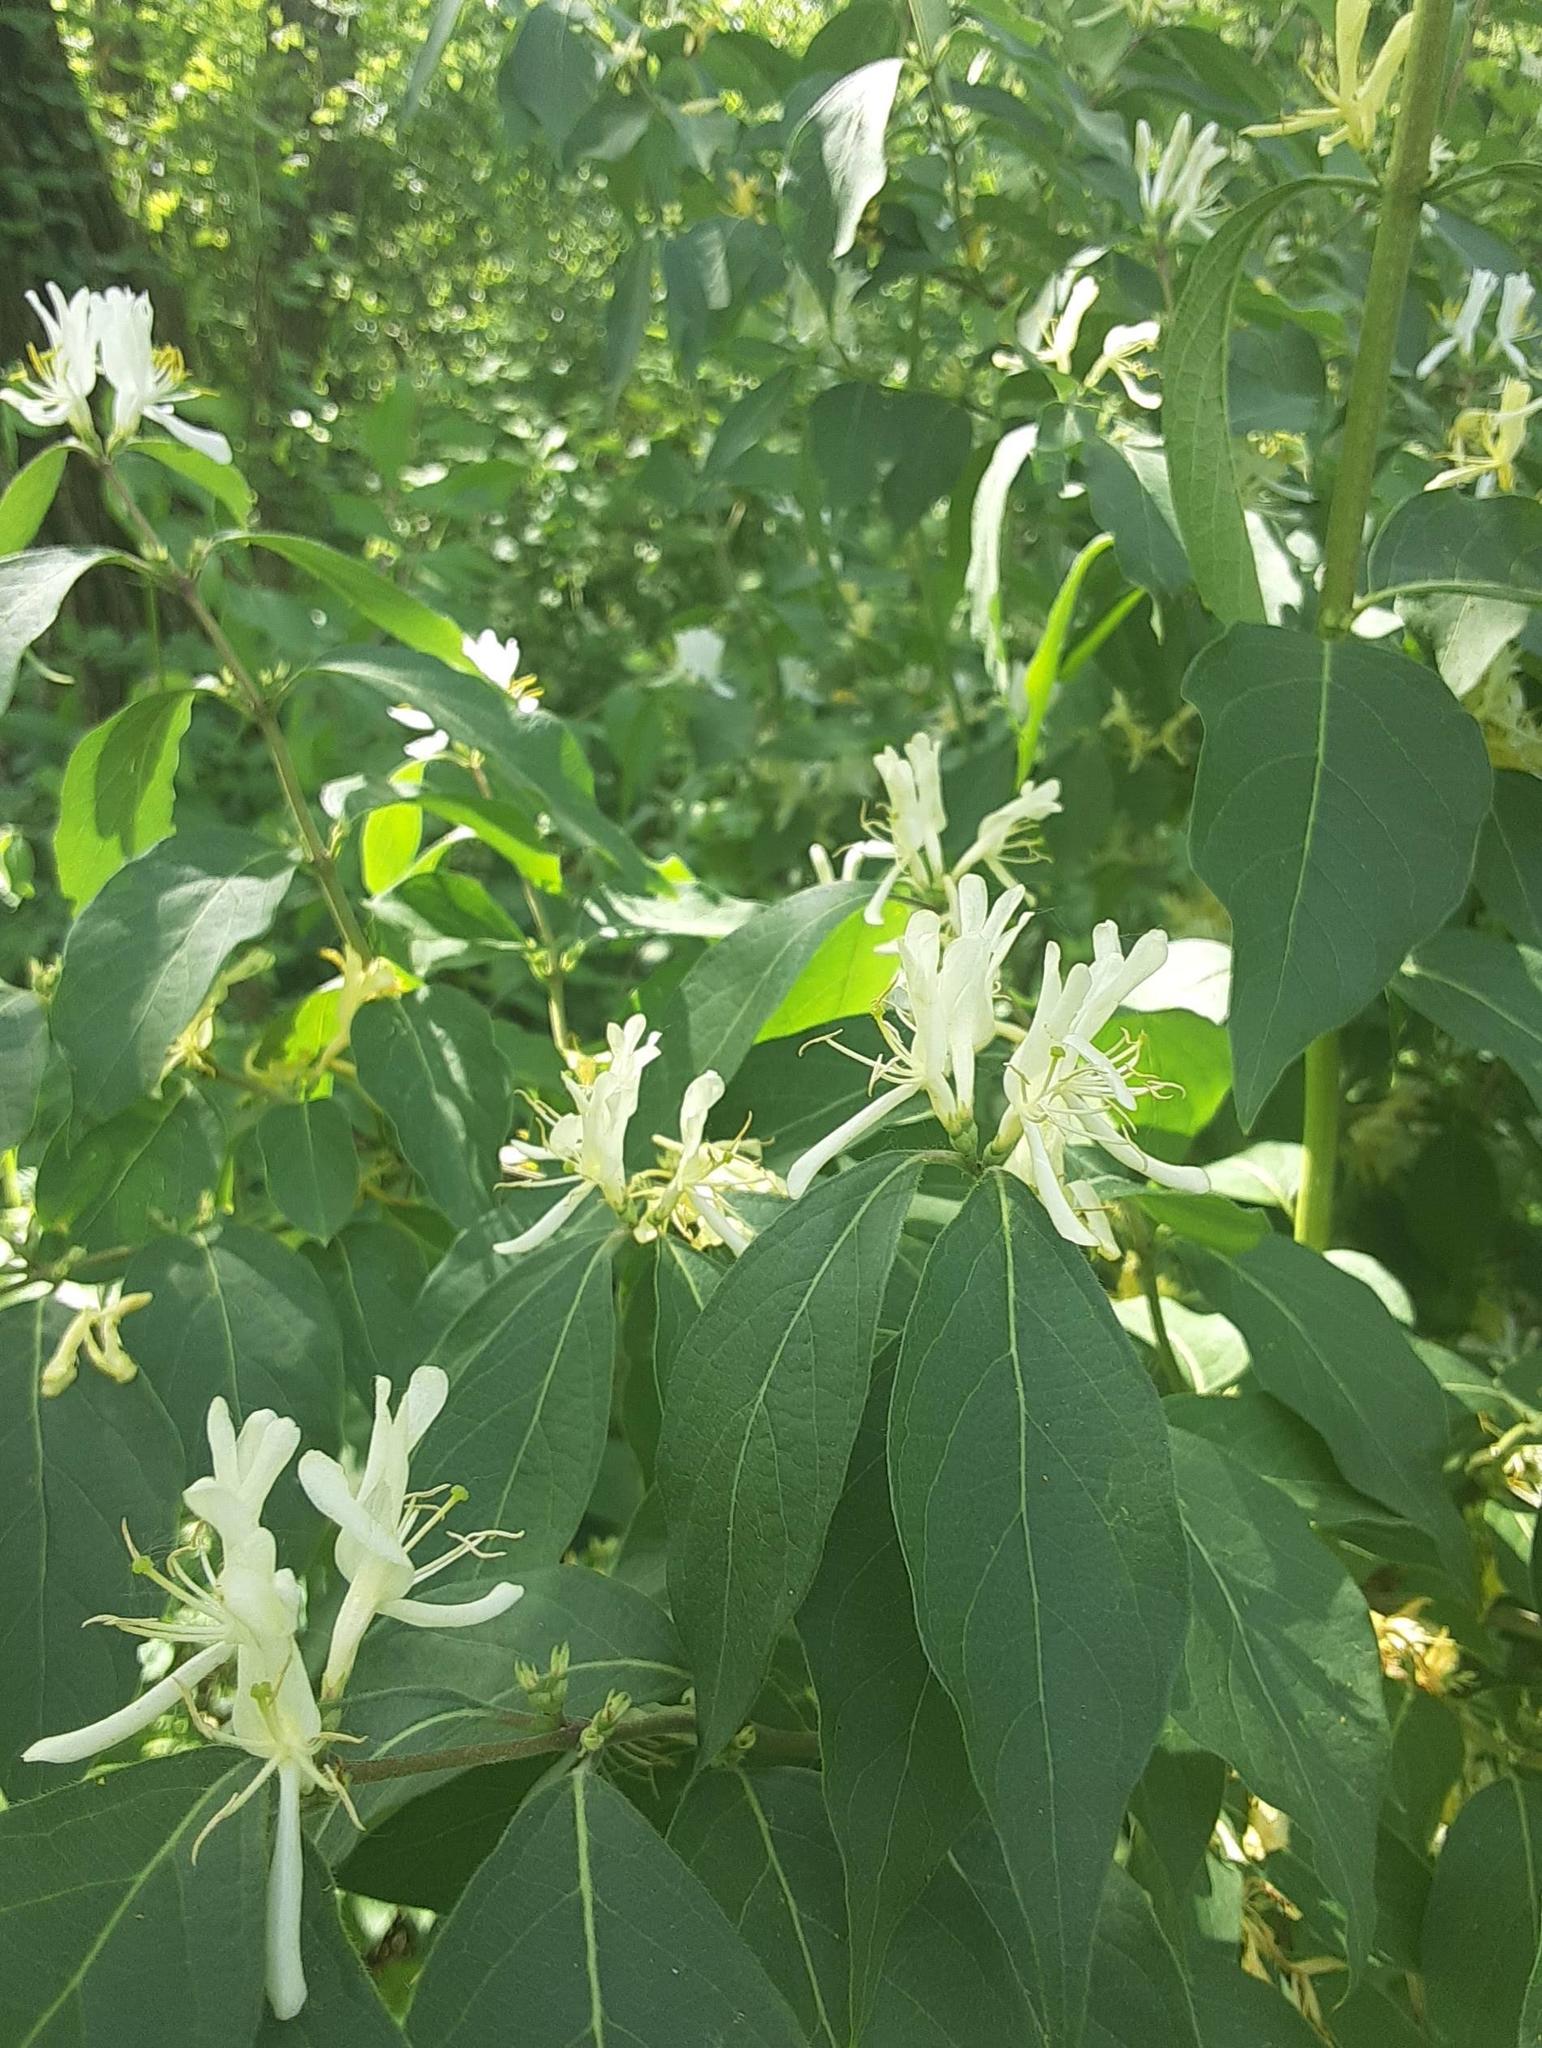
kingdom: Plantae
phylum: Tracheophyta
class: Magnoliopsida
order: Dipsacales
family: Caprifoliaceae
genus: Lonicera
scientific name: Lonicera maackii
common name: Amur honeysuckle
